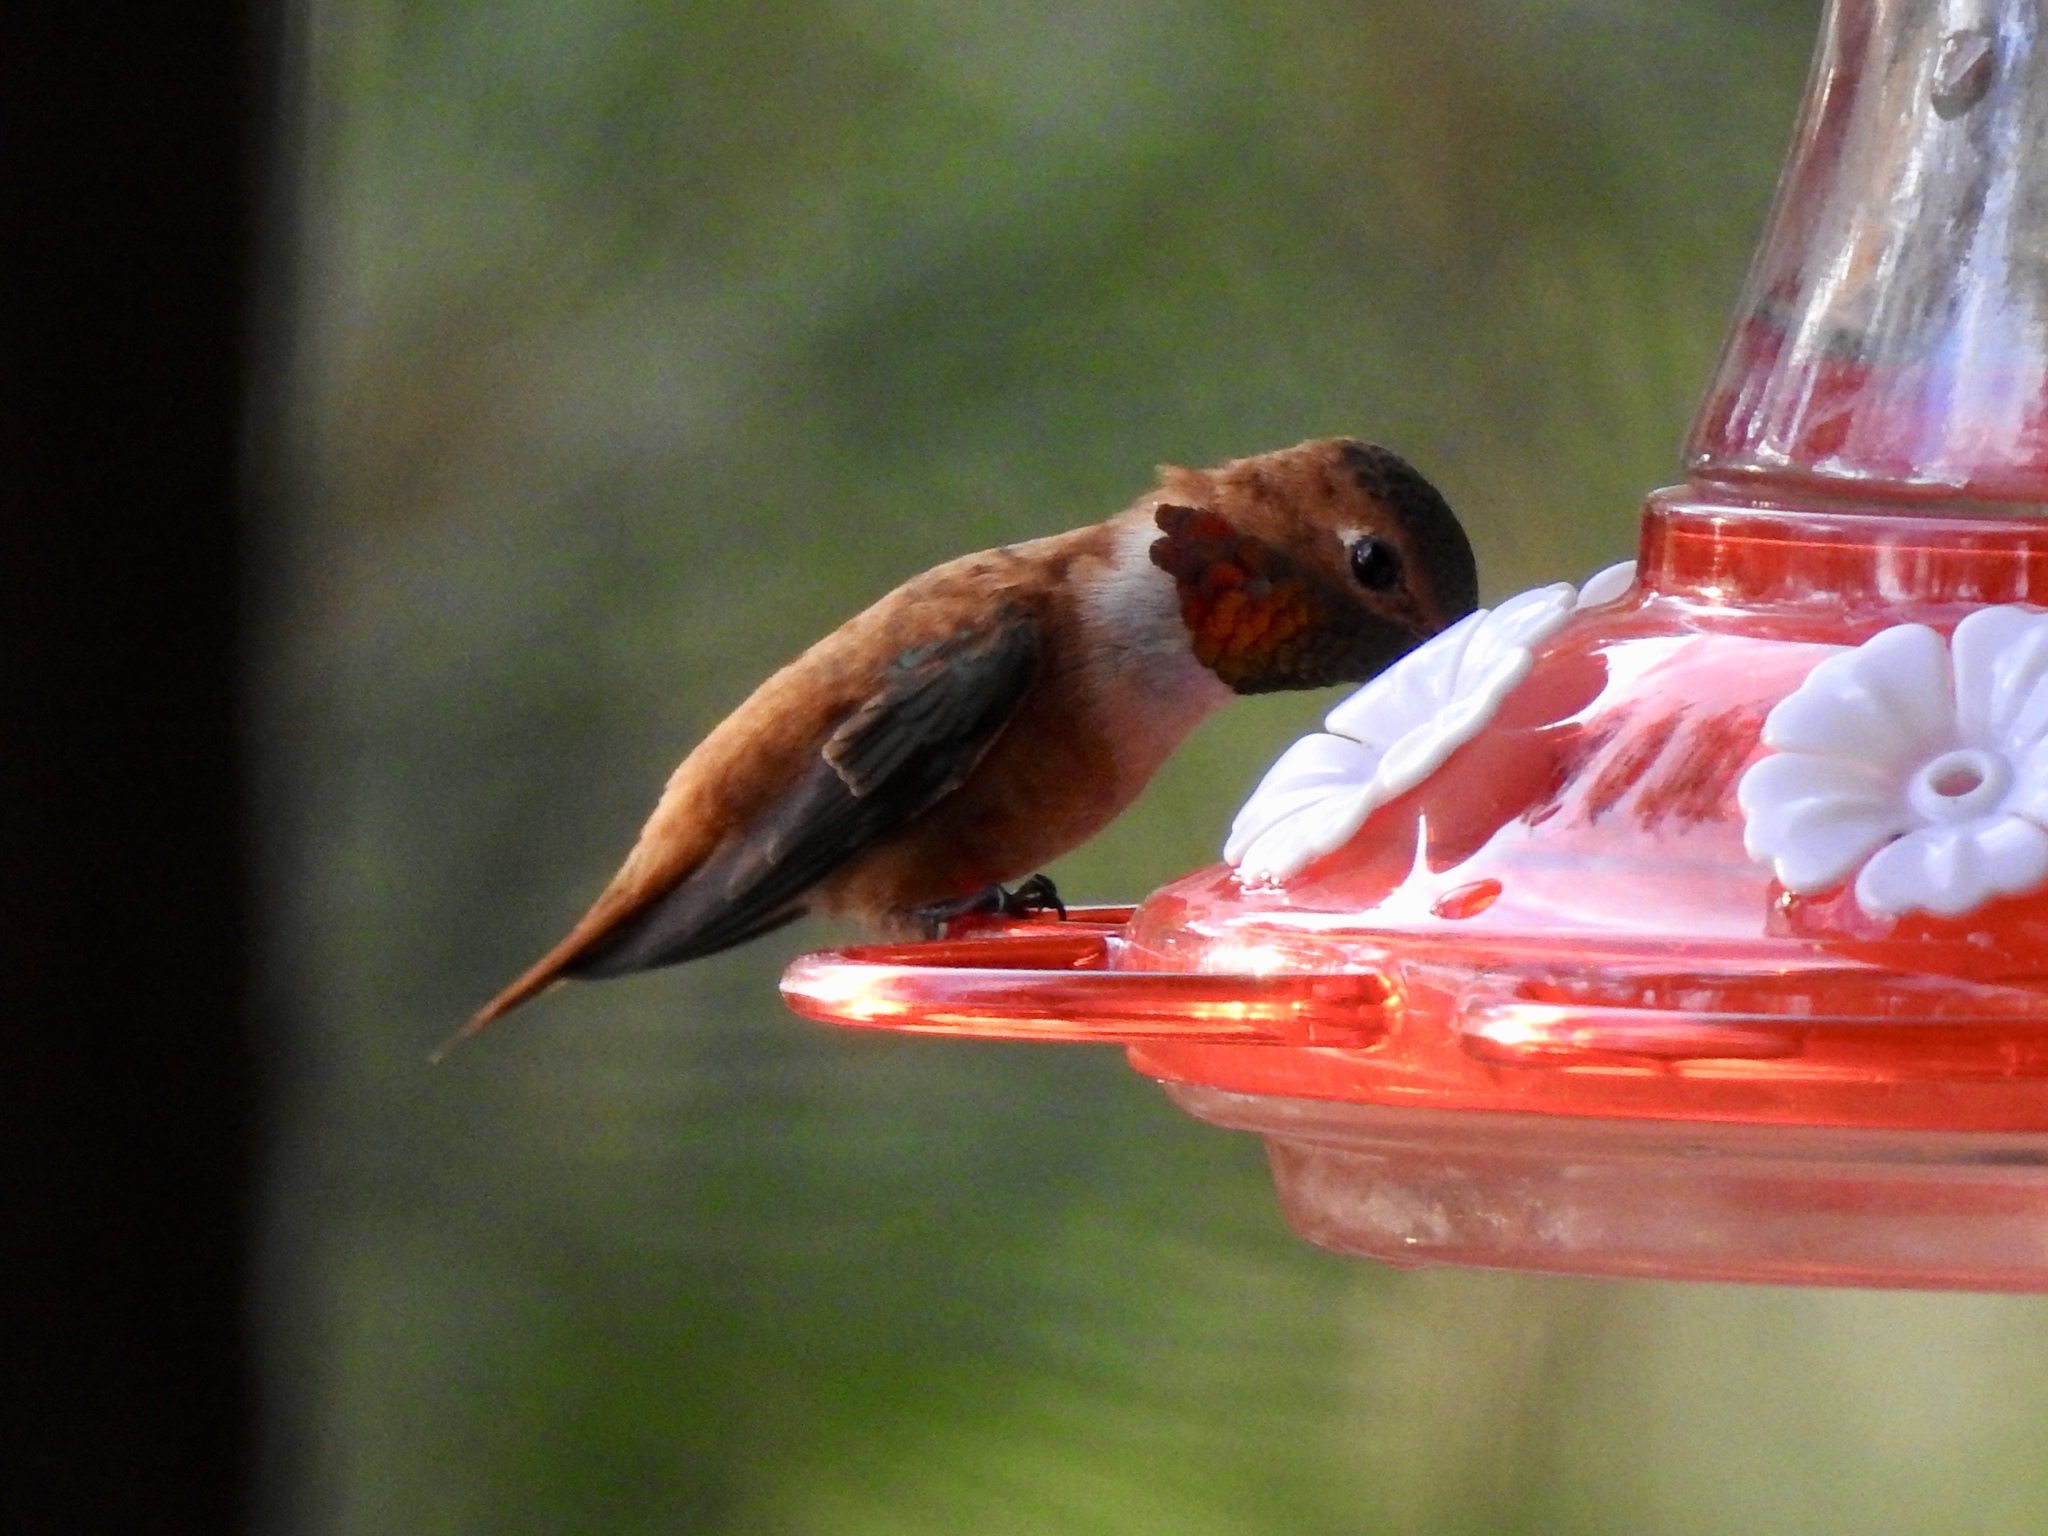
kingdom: Animalia
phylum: Chordata
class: Aves
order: Apodiformes
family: Trochilidae
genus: Selasphorus
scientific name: Selasphorus rufus
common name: Rufous hummingbird
